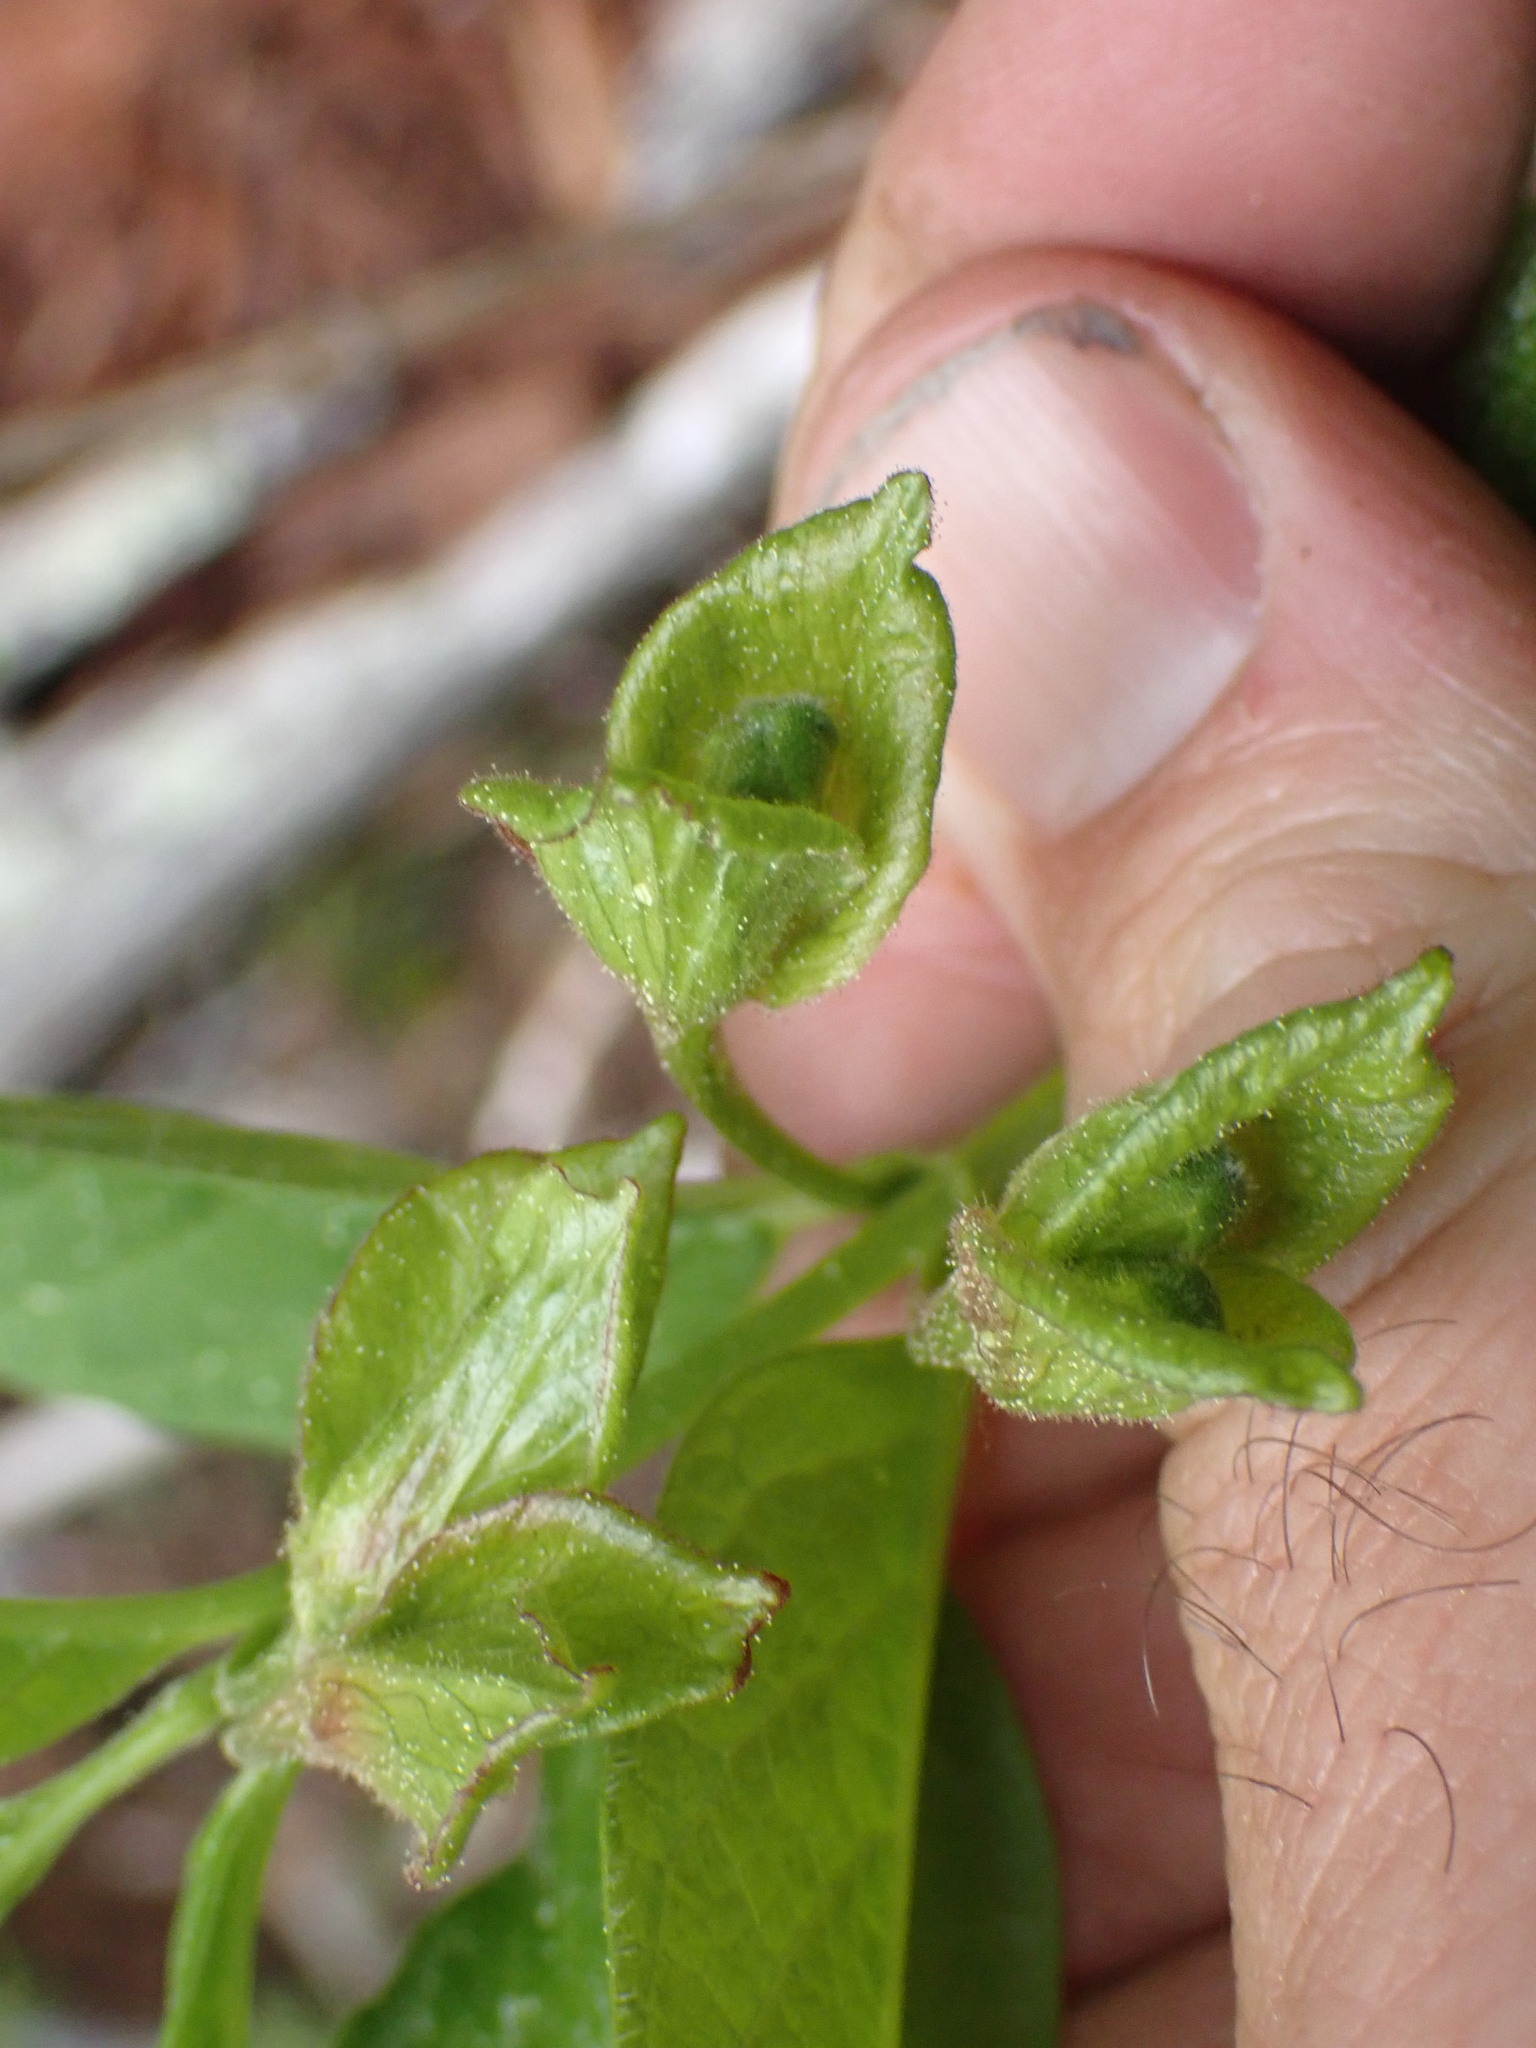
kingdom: Plantae
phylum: Tracheophyta
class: Magnoliopsida
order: Dipsacales
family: Caprifoliaceae
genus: Lonicera
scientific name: Lonicera involucrata
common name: Californian honeysuckle
